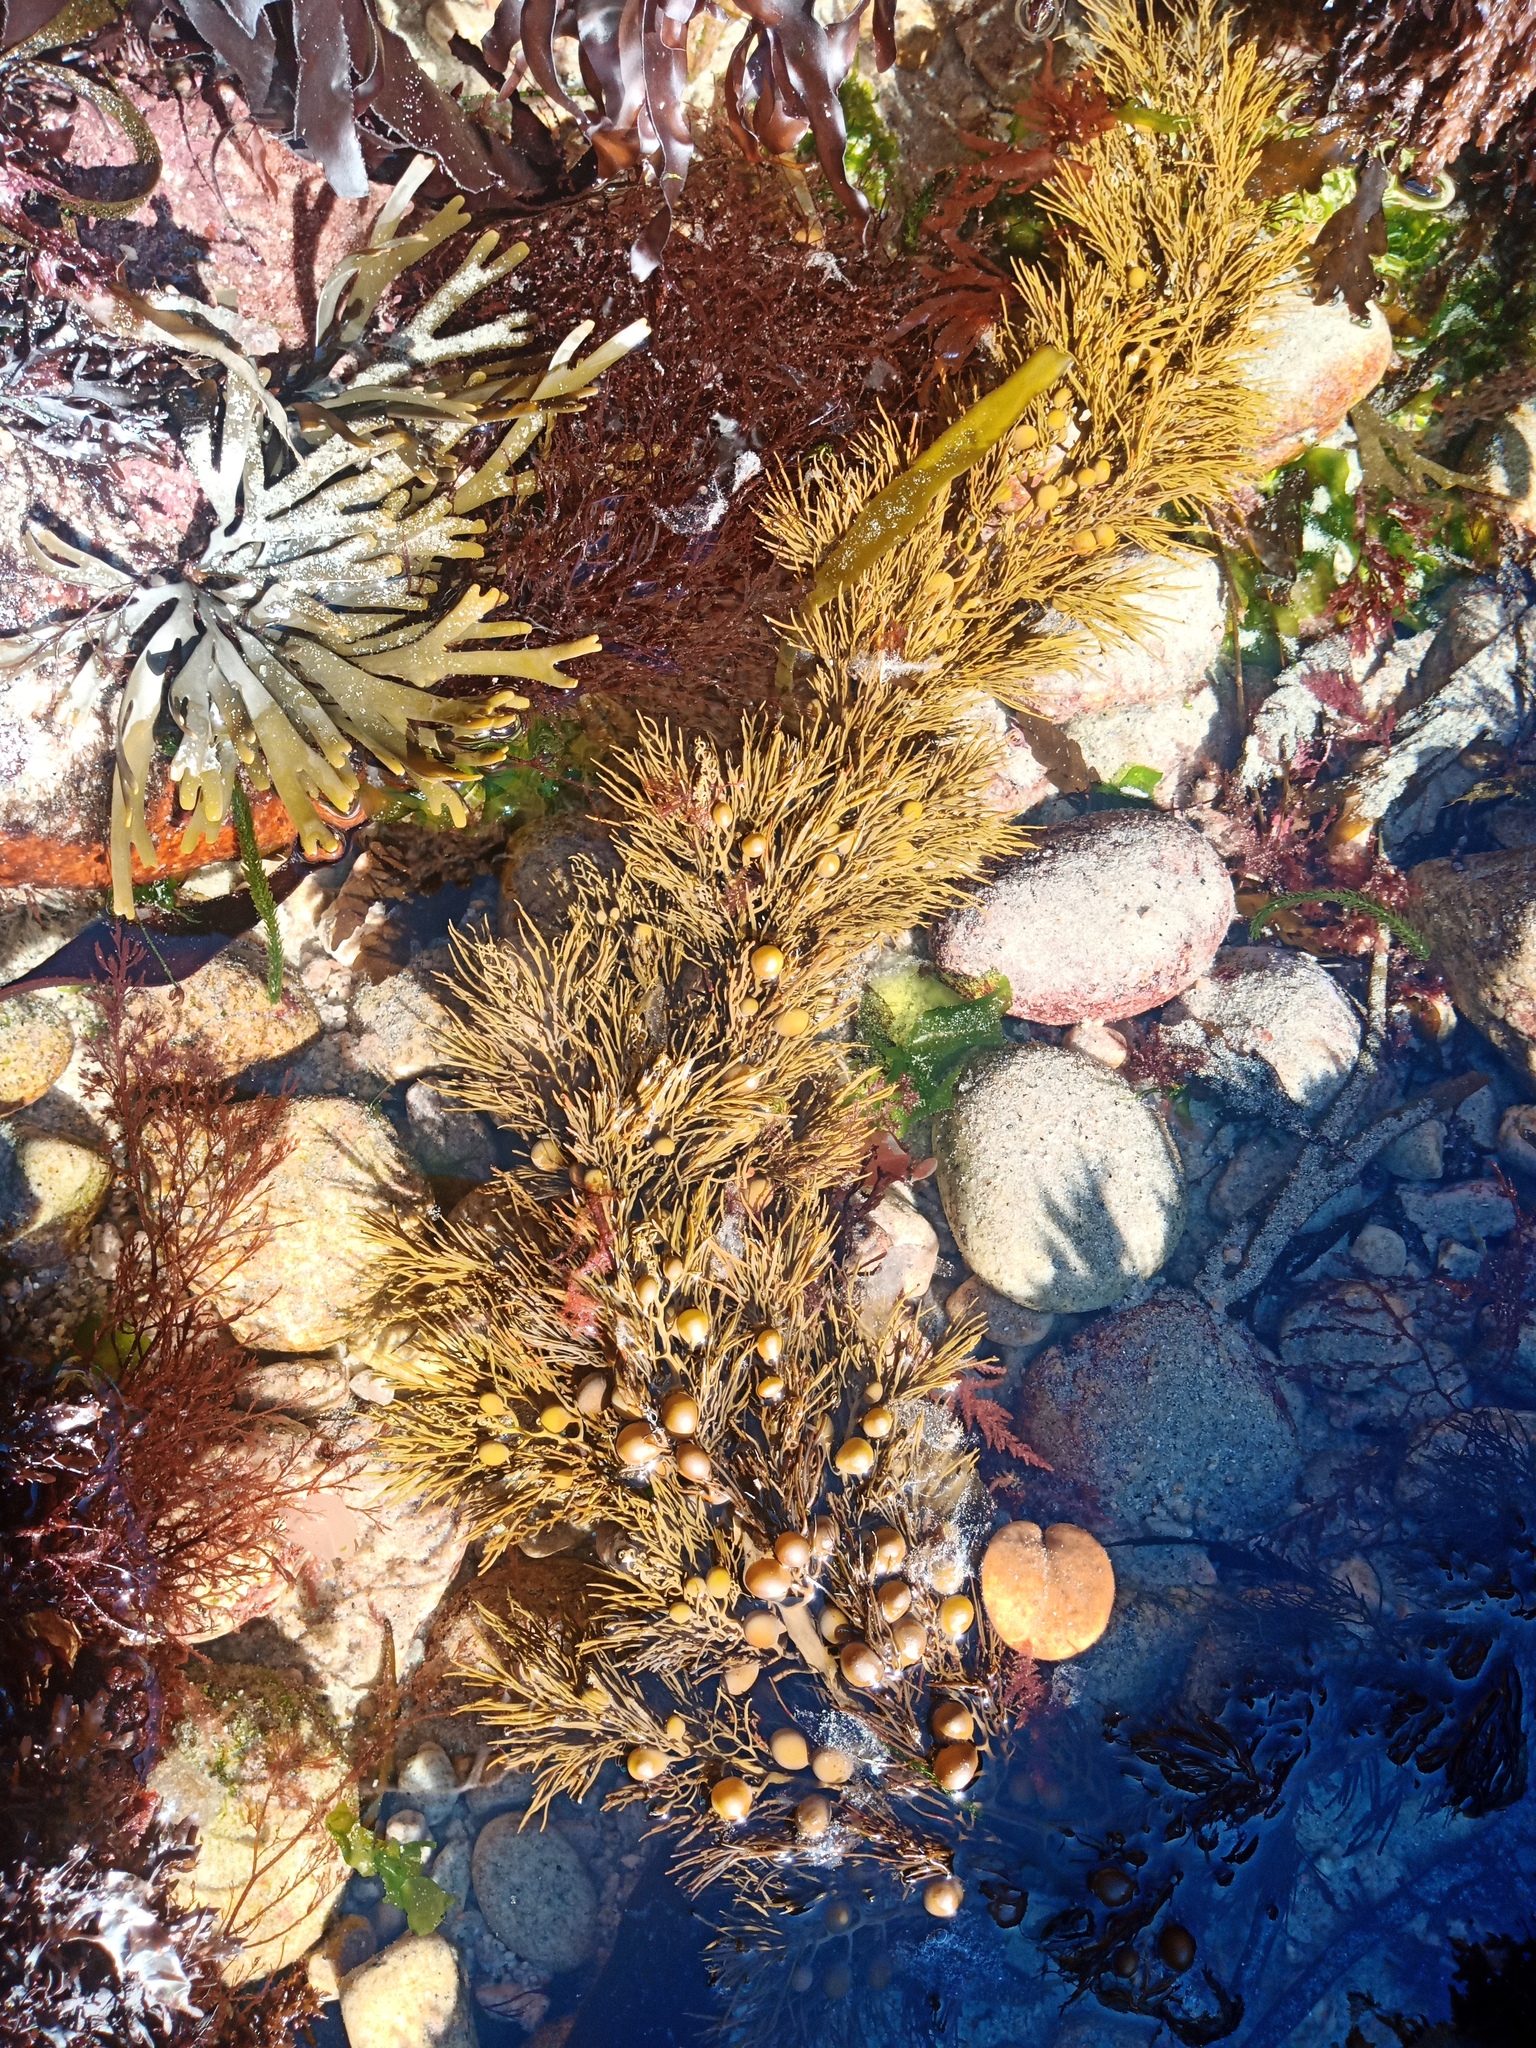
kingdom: Chromista
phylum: Ochrophyta
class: Phaeophyceae
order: Fucales
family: Sargassaceae
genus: Cystophora
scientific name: Cystophora retroflexa
